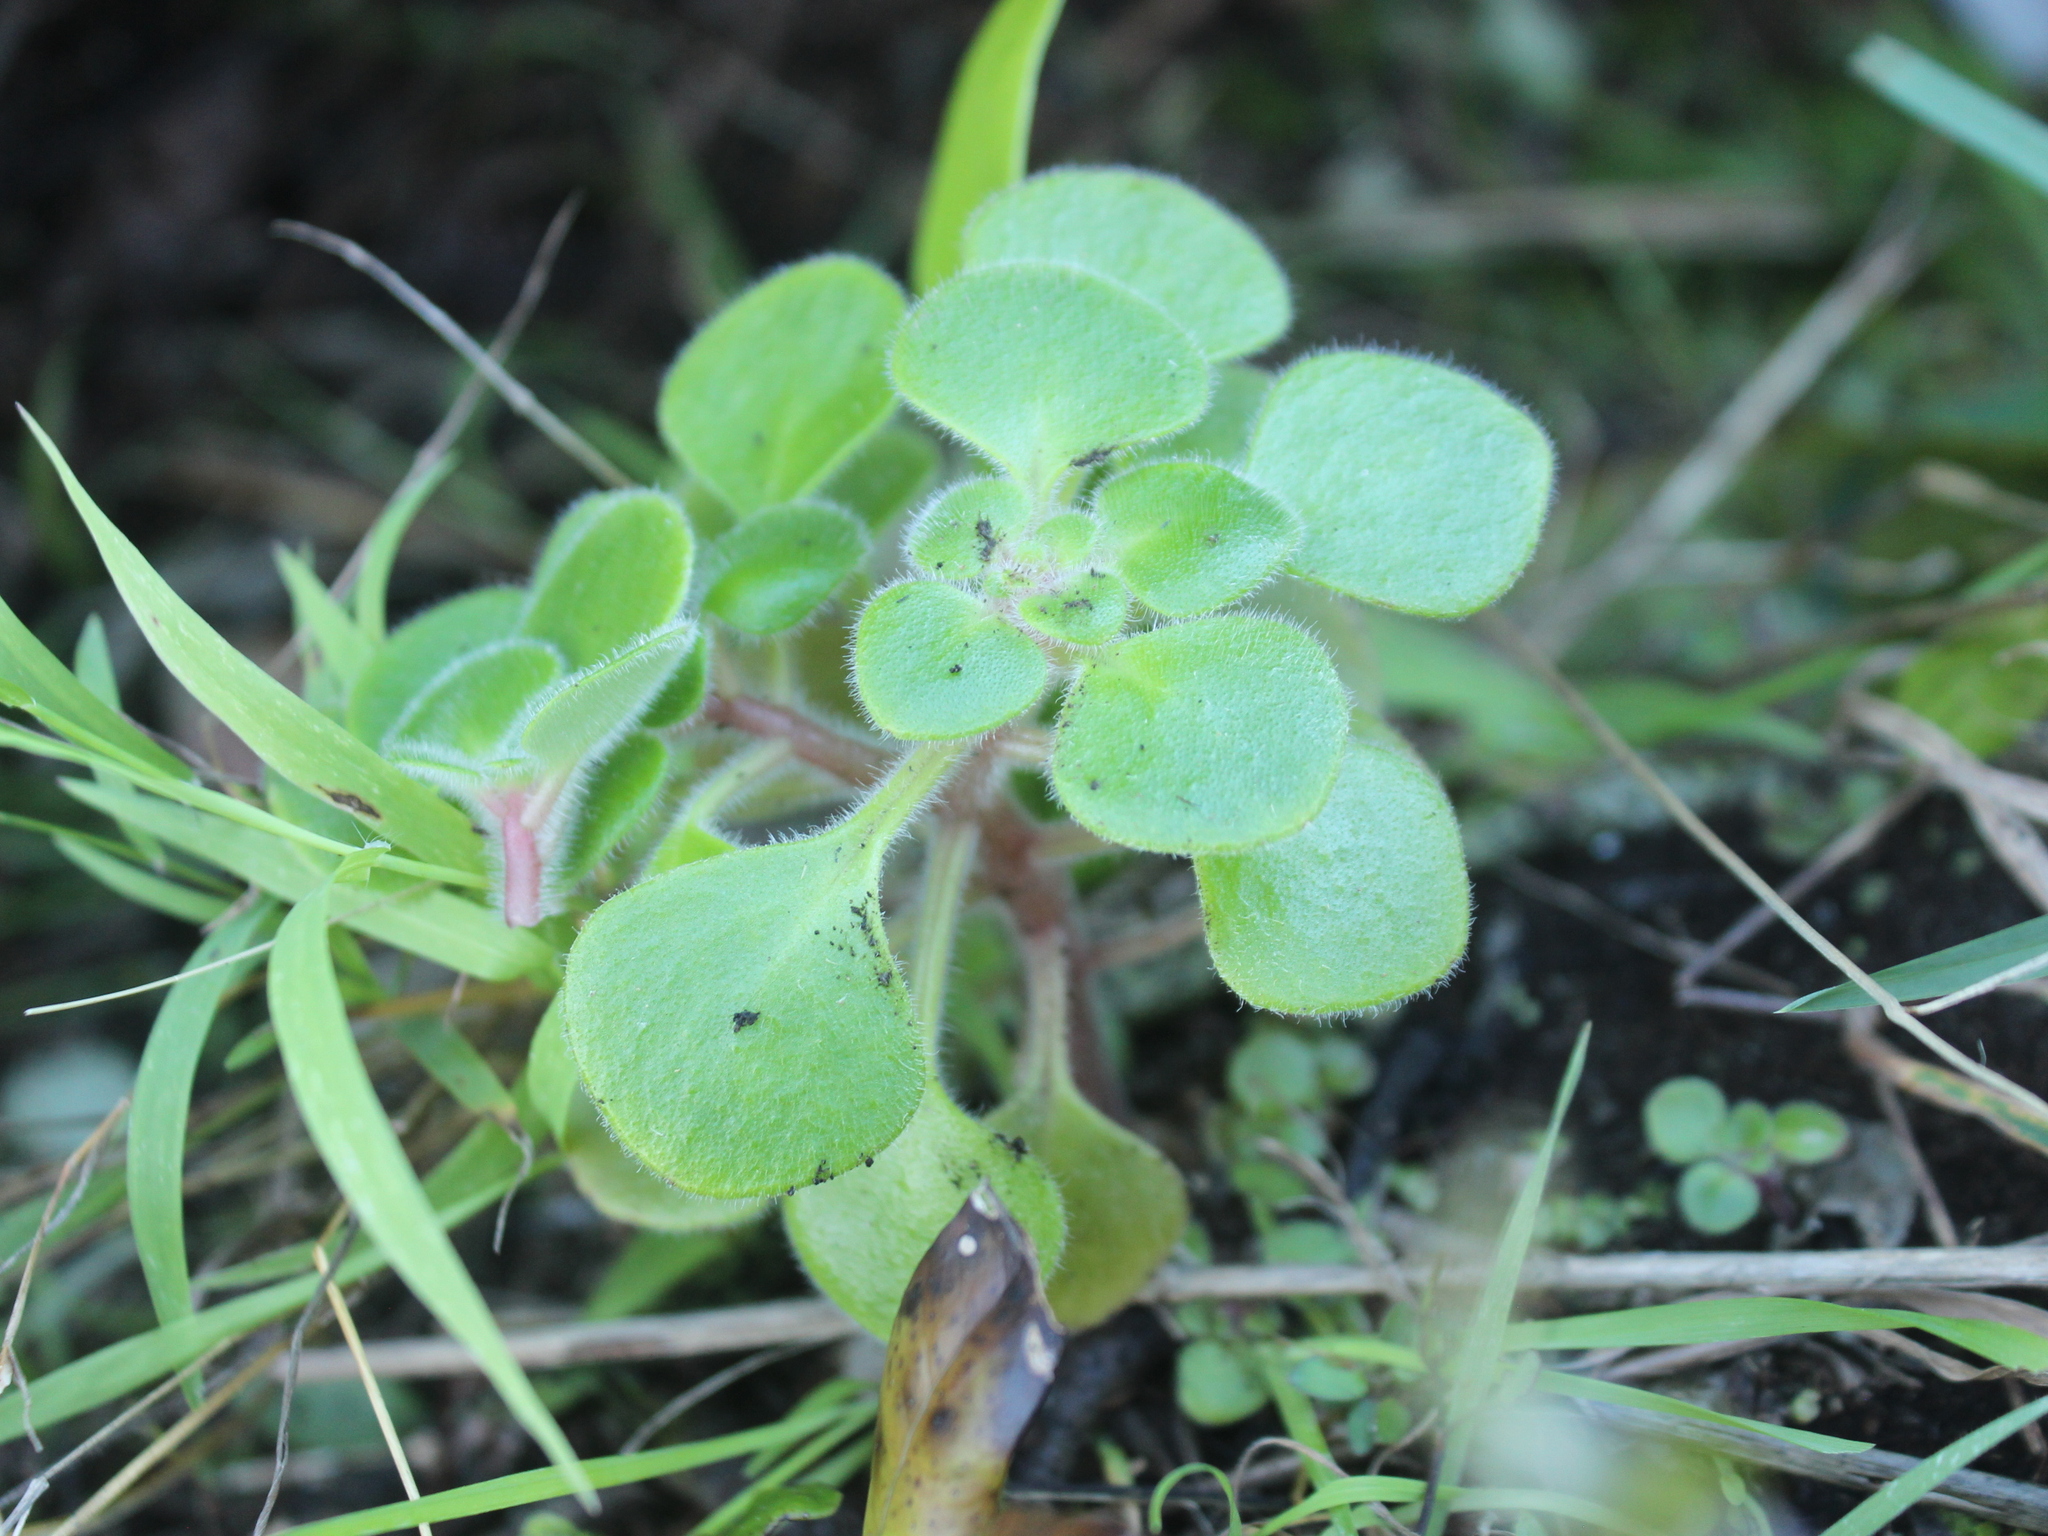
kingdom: Plantae
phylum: Tracheophyta
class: Magnoliopsida
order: Saxifragales
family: Crassulaceae
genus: Aichryson
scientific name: Aichryson laxum
